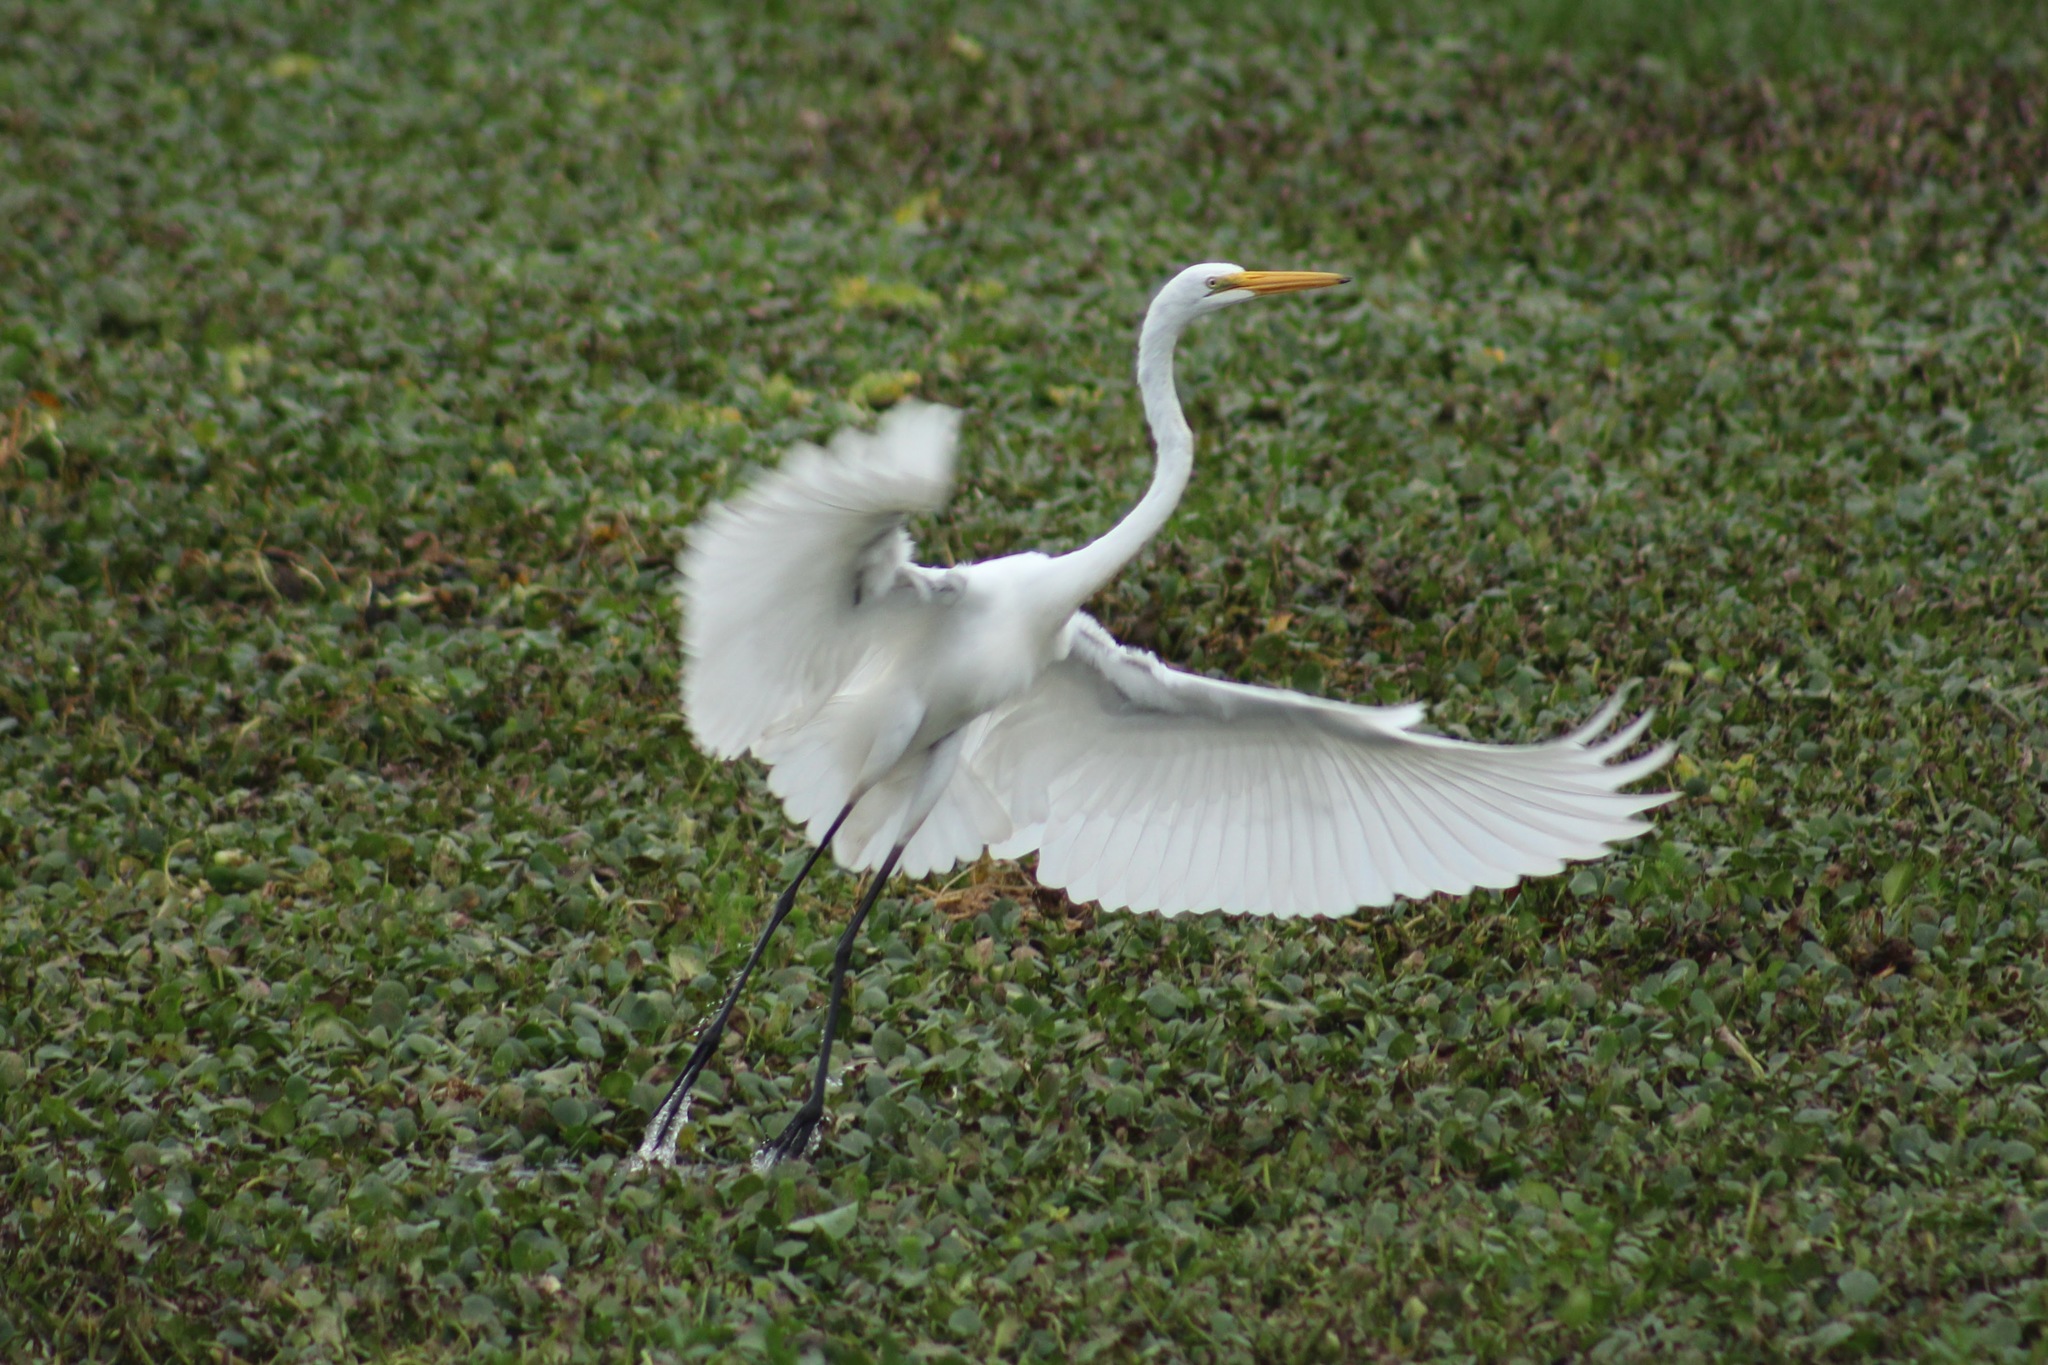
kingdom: Animalia
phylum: Chordata
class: Aves
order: Pelecaniformes
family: Ardeidae
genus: Ardea
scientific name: Ardea alba
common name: Great egret
